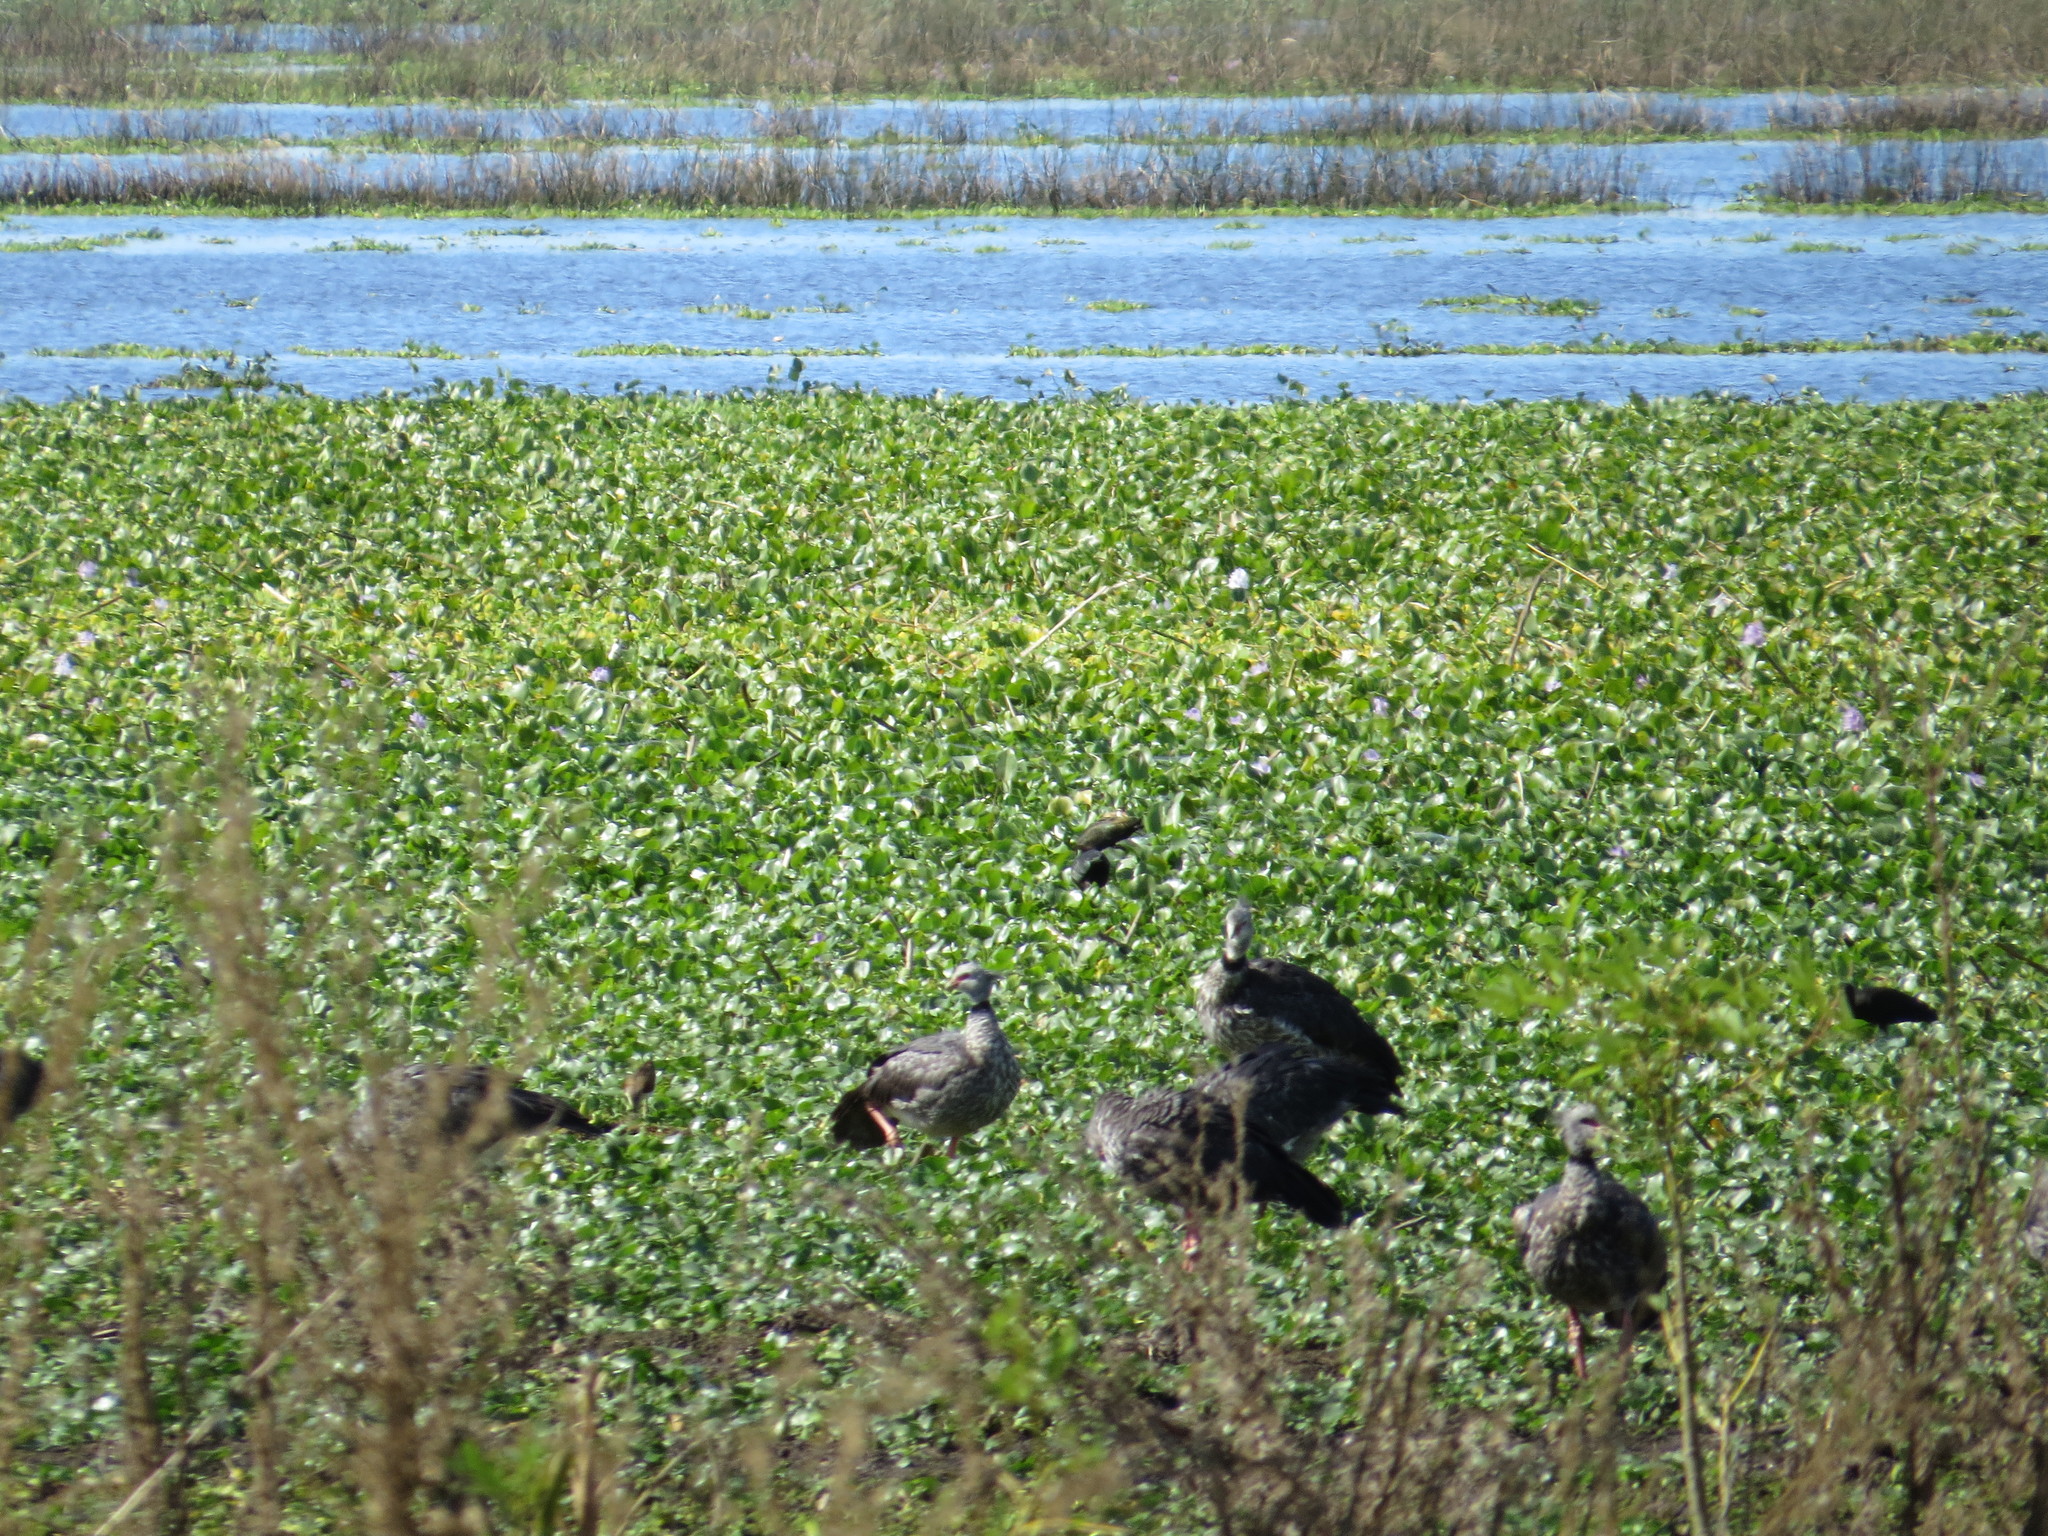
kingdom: Animalia
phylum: Chordata
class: Aves
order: Anseriformes
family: Anhimidae
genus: Chauna
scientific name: Chauna torquata
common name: Southern screamer
